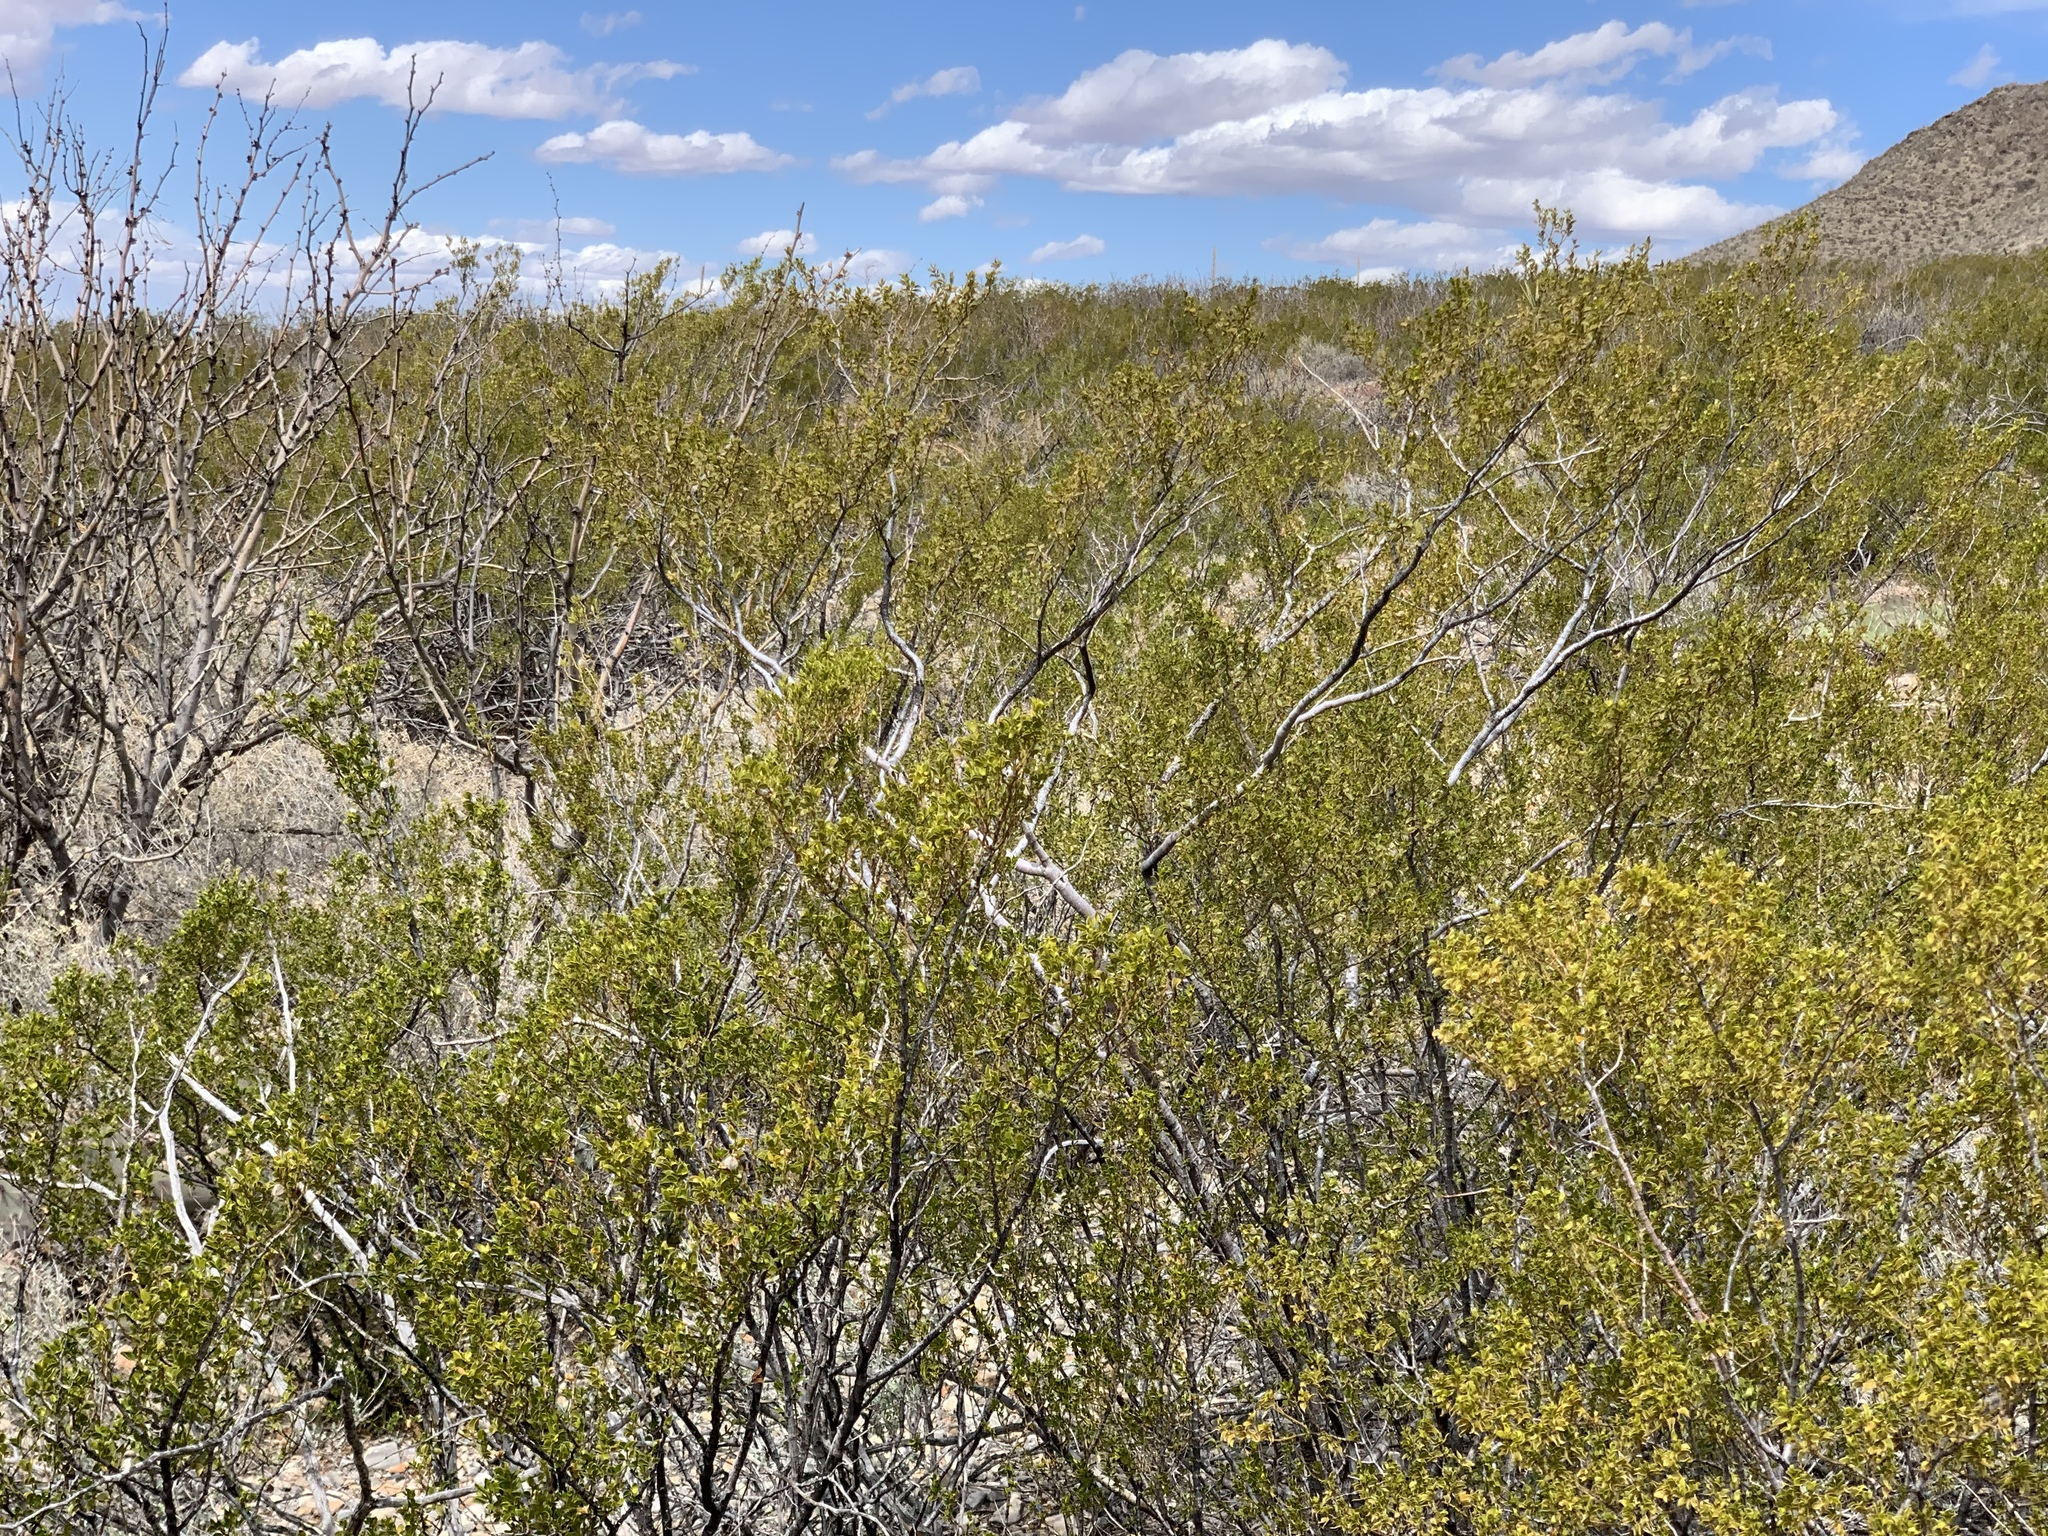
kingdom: Plantae
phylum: Tracheophyta
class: Magnoliopsida
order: Zygophyllales
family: Zygophyllaceae
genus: Larrea
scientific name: Larrea tridentata
